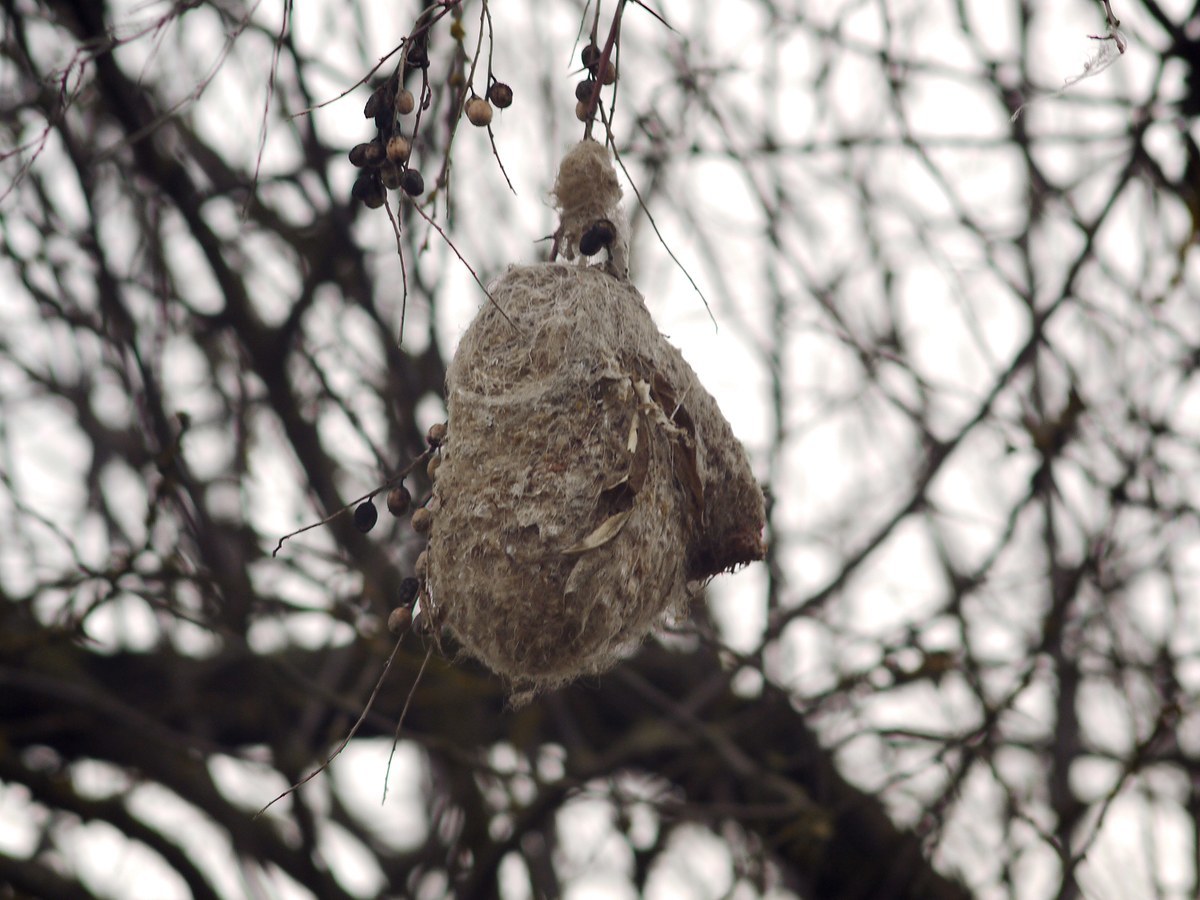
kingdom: Animalia
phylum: Chordata
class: Aves
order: Passeriformes
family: Remizidae
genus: Remiz
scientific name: Remiz pendulinus
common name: Eurasian penduline tit
